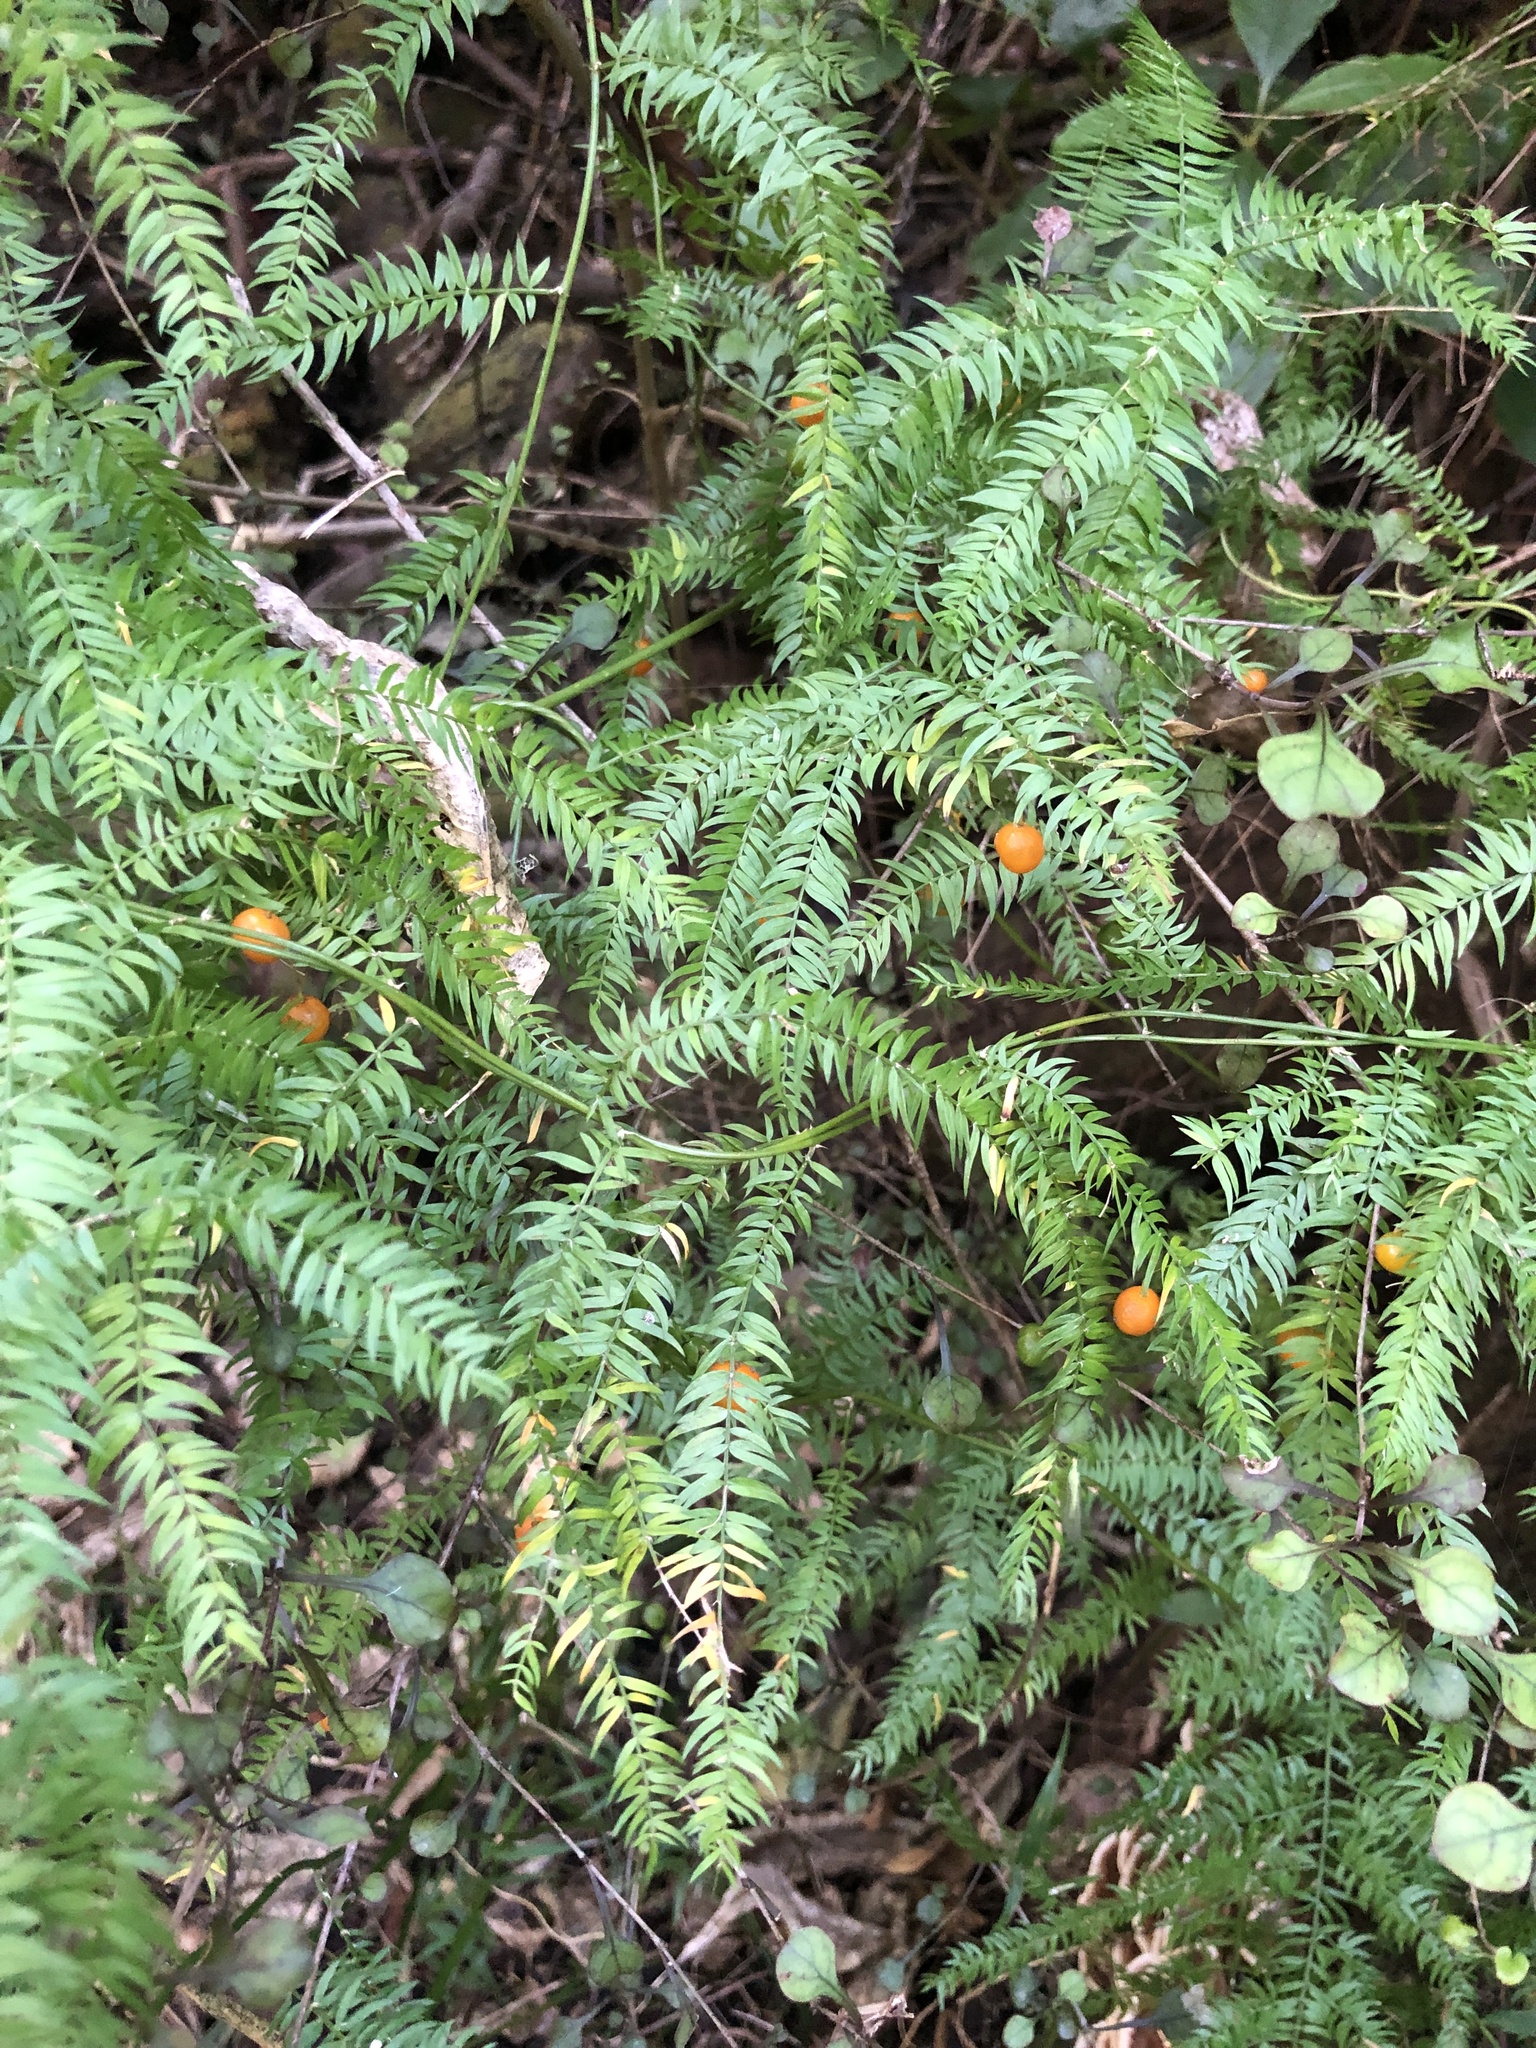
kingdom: Plantae
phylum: Tracheophyta
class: Liliopsida
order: Asparagales
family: Asparagaceae
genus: Asparagus
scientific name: Asparagus scandens
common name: Asparagus-fern
